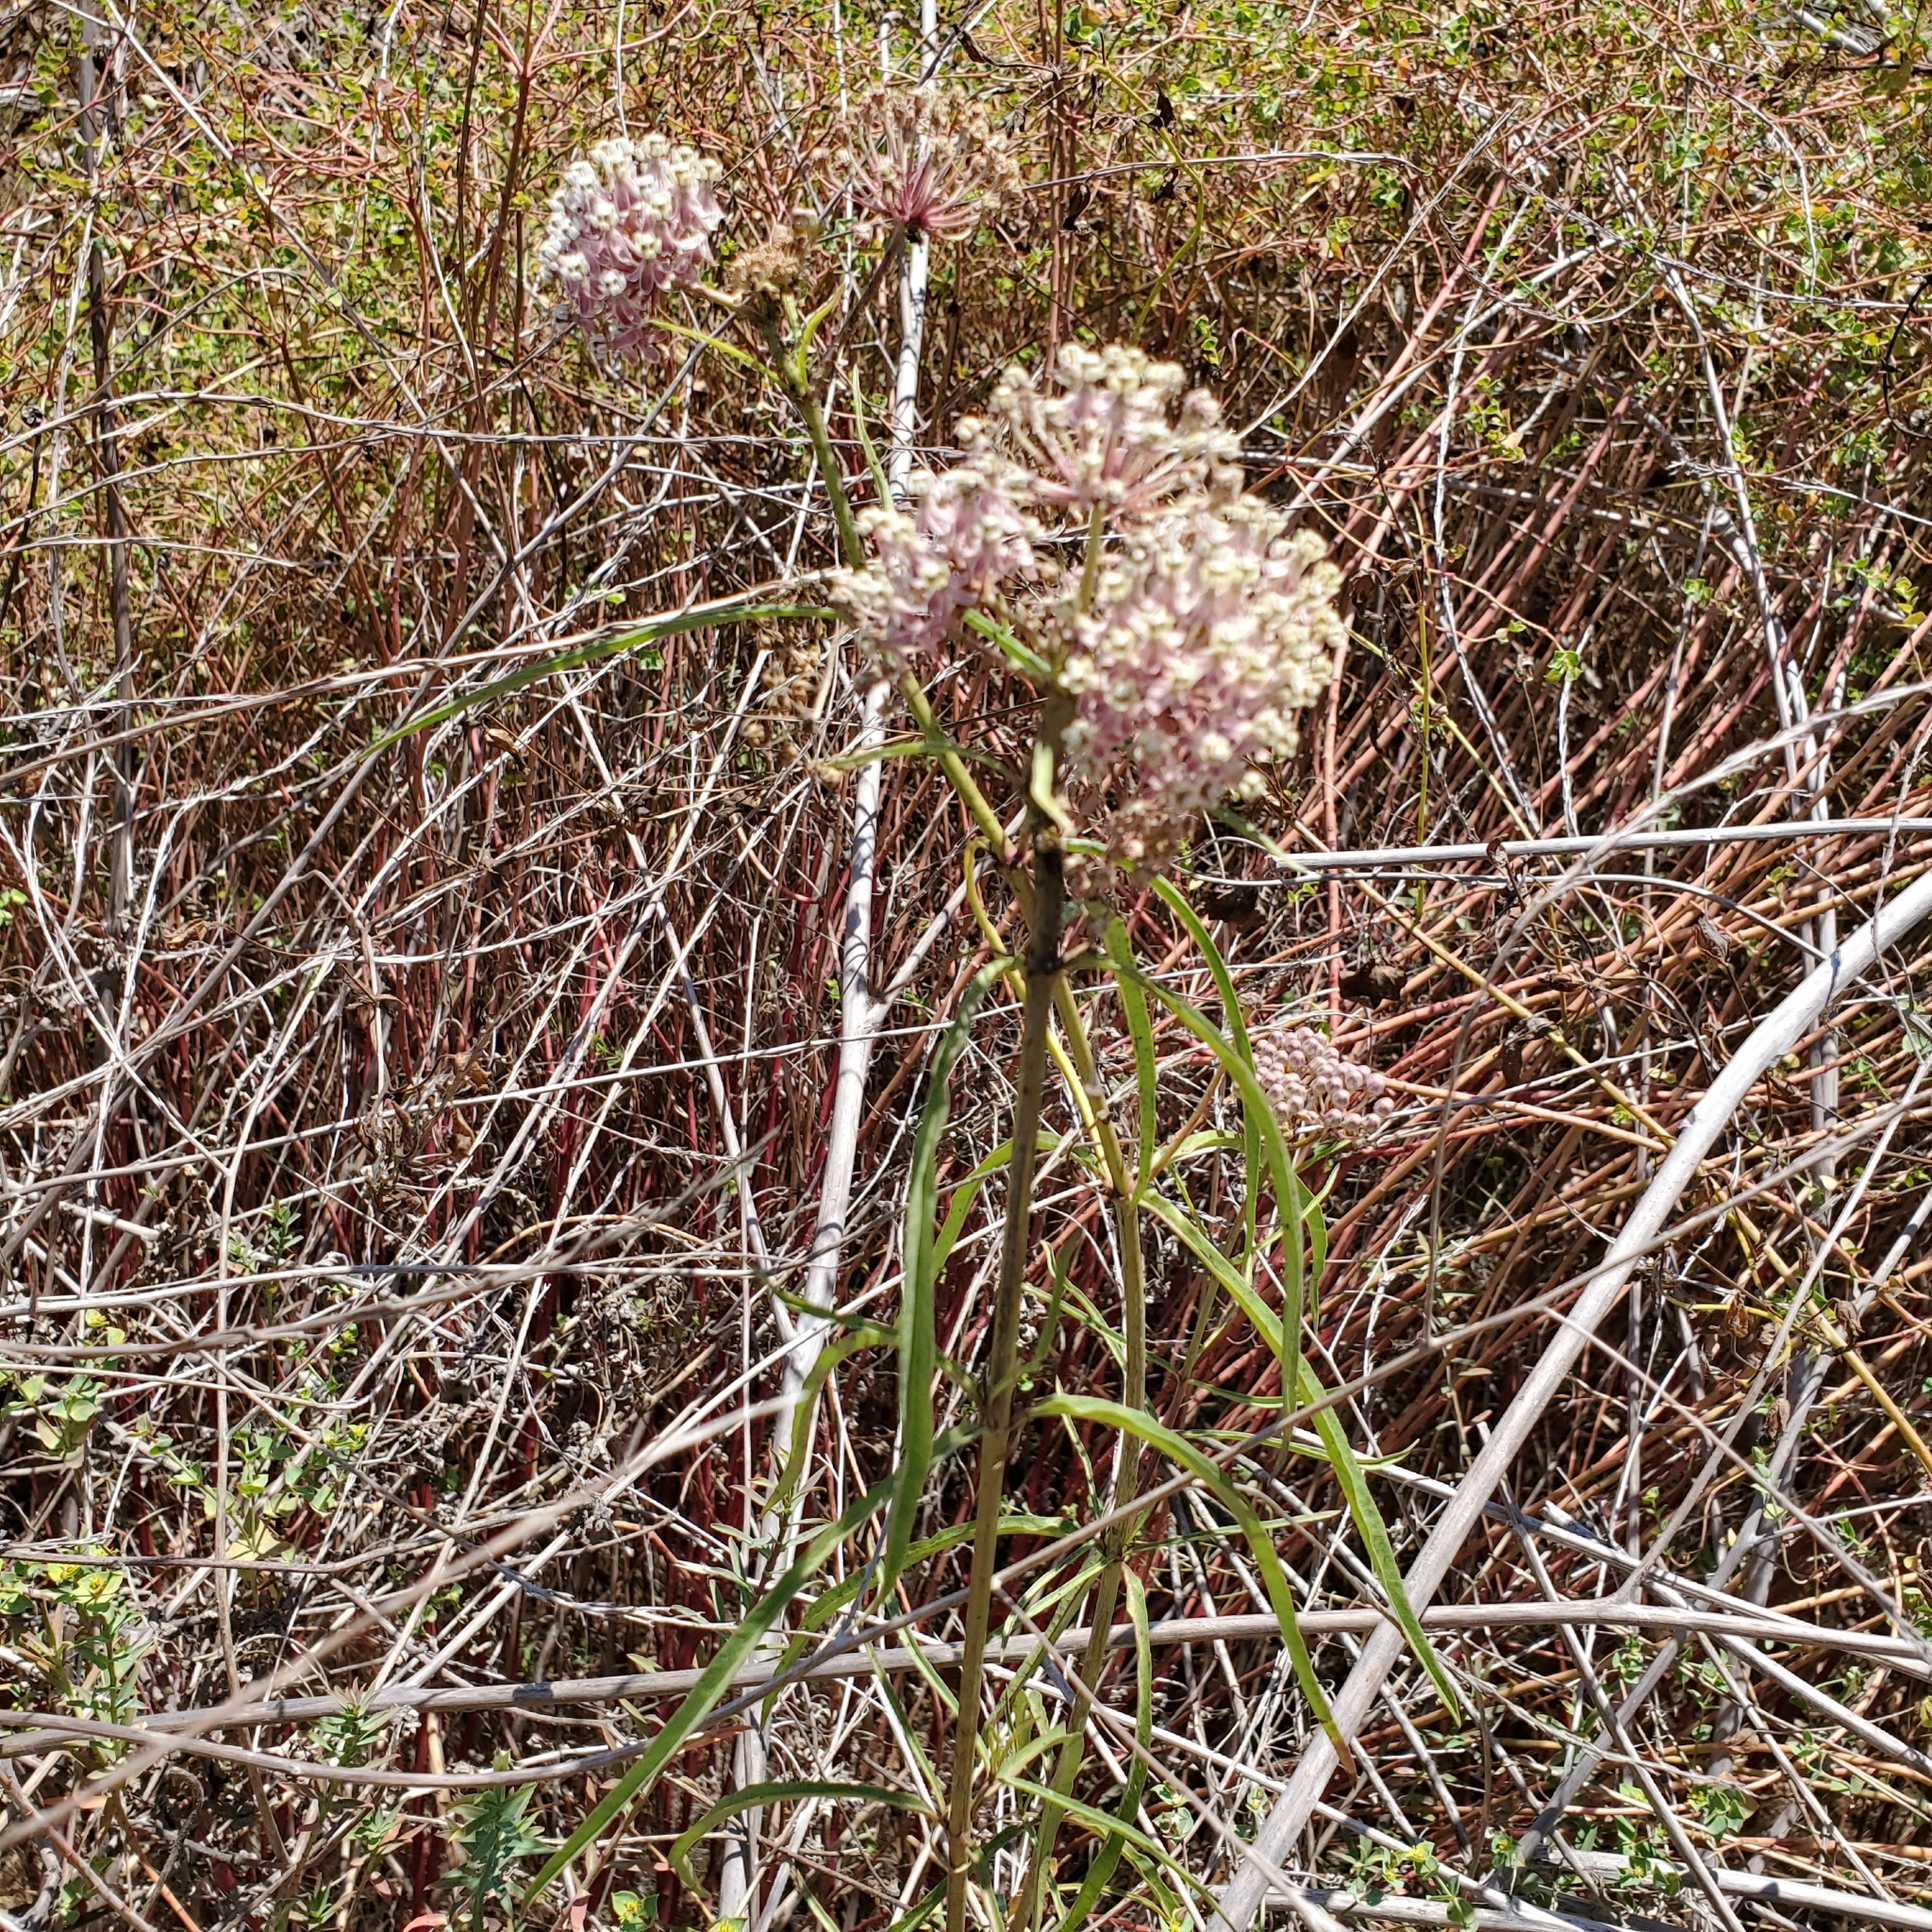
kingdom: Plantae
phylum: Tracheophyta
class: Magnoliopsida
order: Gentianales
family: Apocynaceae
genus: Asclepias
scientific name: Asclepias fascicularis
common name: Mexican milkweed
